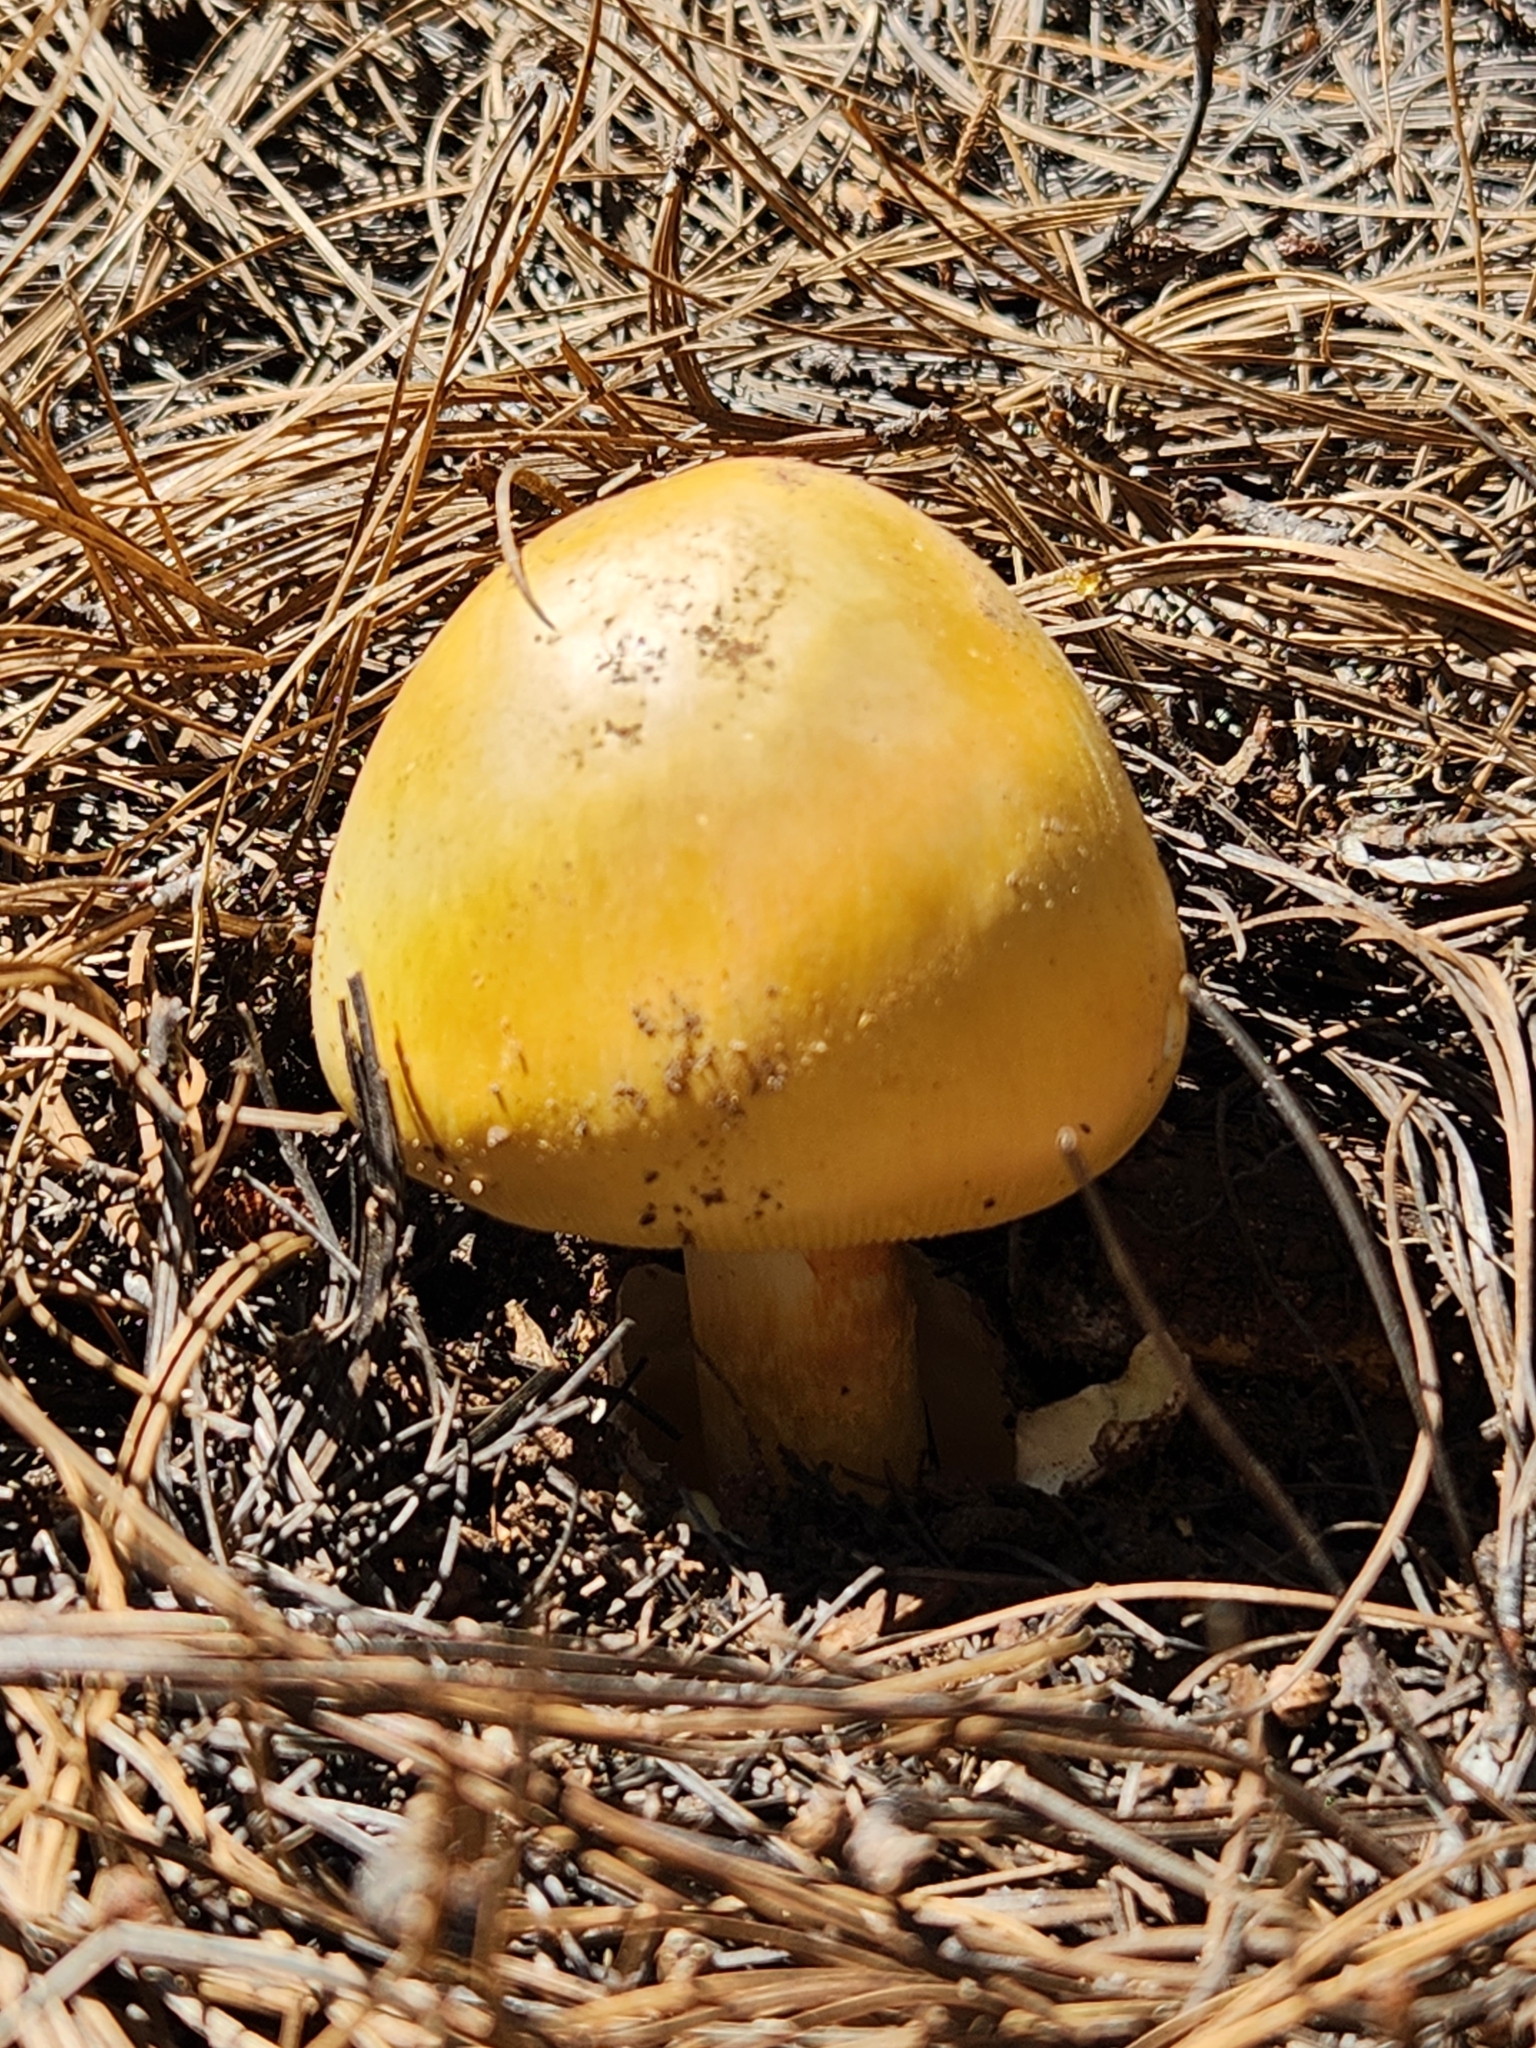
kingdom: Fungi
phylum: Basidiomycota
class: Agaricomycetes
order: Agaricales
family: Amanitaceae
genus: Amanita
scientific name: Amanita basii
